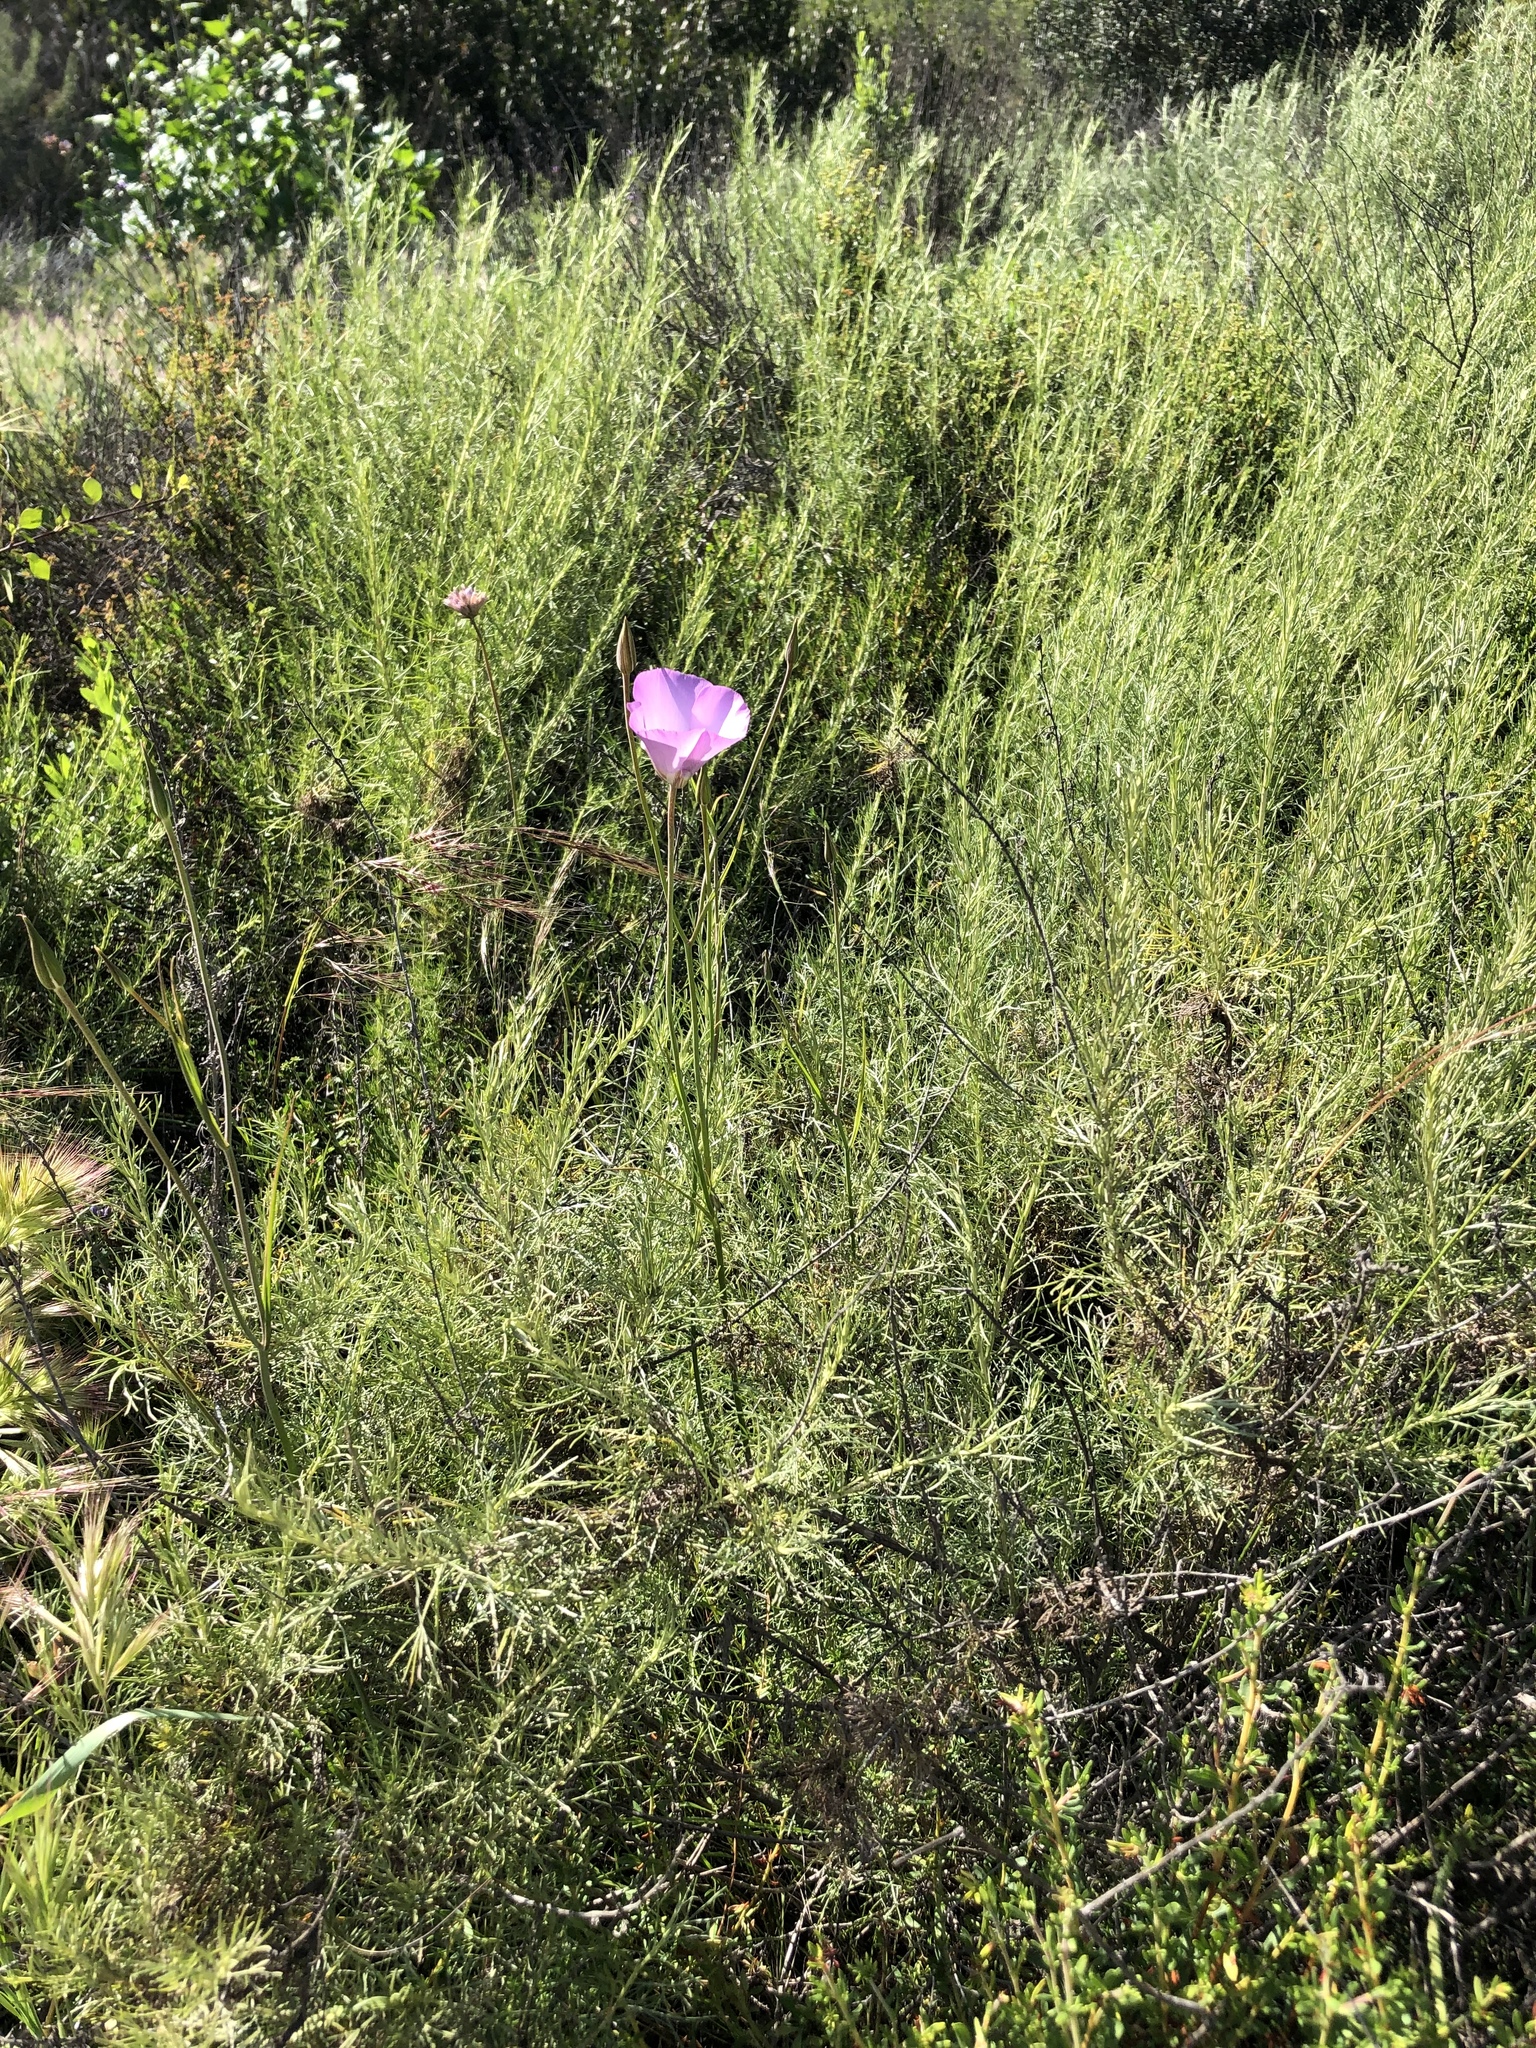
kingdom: Plantae
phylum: Tracheophyta
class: Liliopsida
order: Liliales
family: Liliaceae
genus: Calochortus
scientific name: Calochortus splendens
